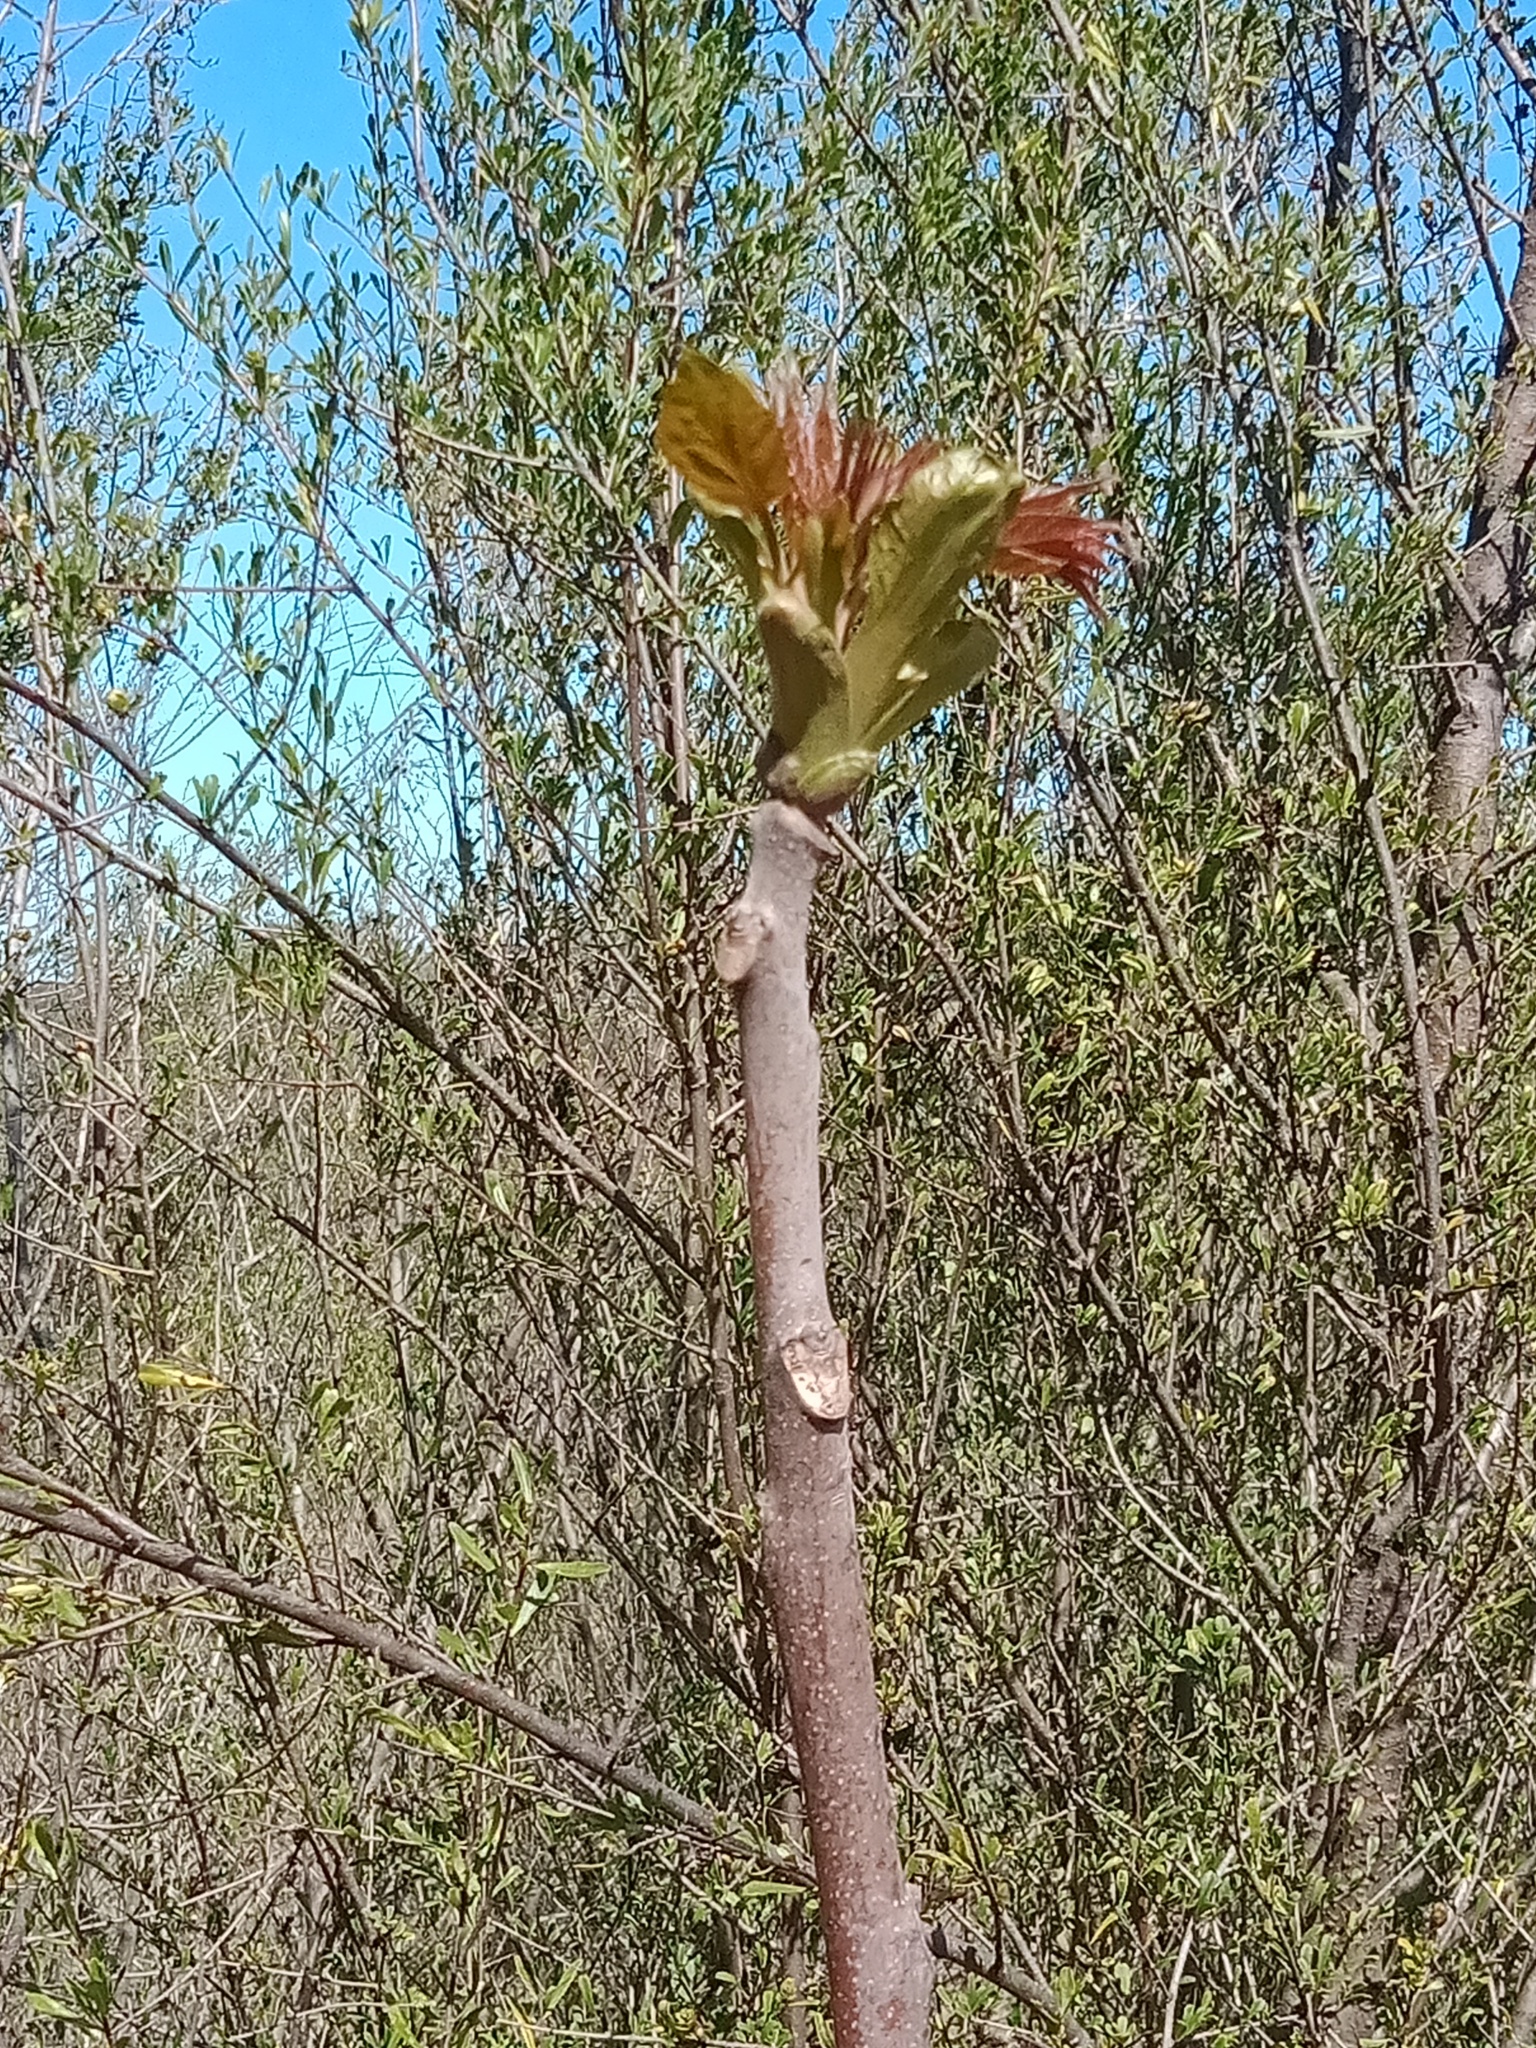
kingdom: Plantae
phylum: Tracheophyta
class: Magnoliopsida
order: Sapindales
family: Simaroubaceae
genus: Ailanthus
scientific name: Ailanthus altissima
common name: Tree-of-heaven
